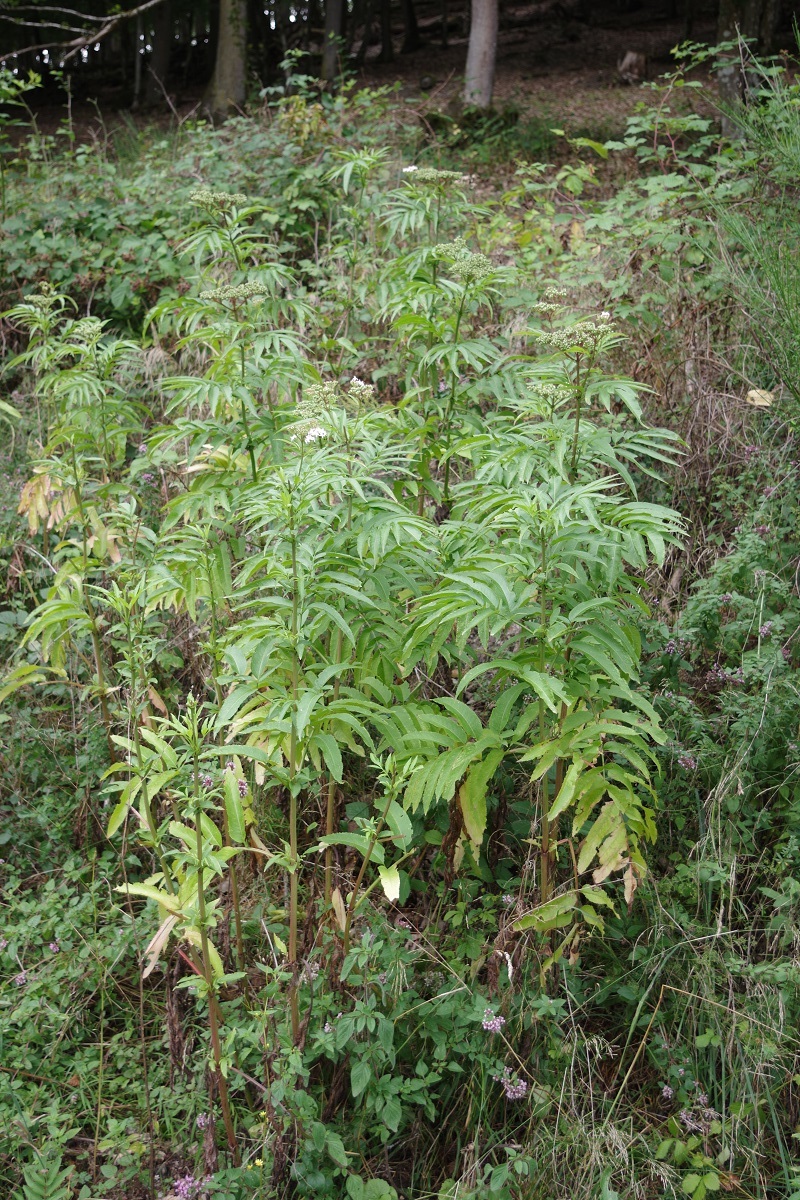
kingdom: Plantae
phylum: Tracheophyta
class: Magnoliopsida
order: Dipsacales
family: Viburnaceae
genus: Sambucus
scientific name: Sambucus ebulus
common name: Dwarf elder
